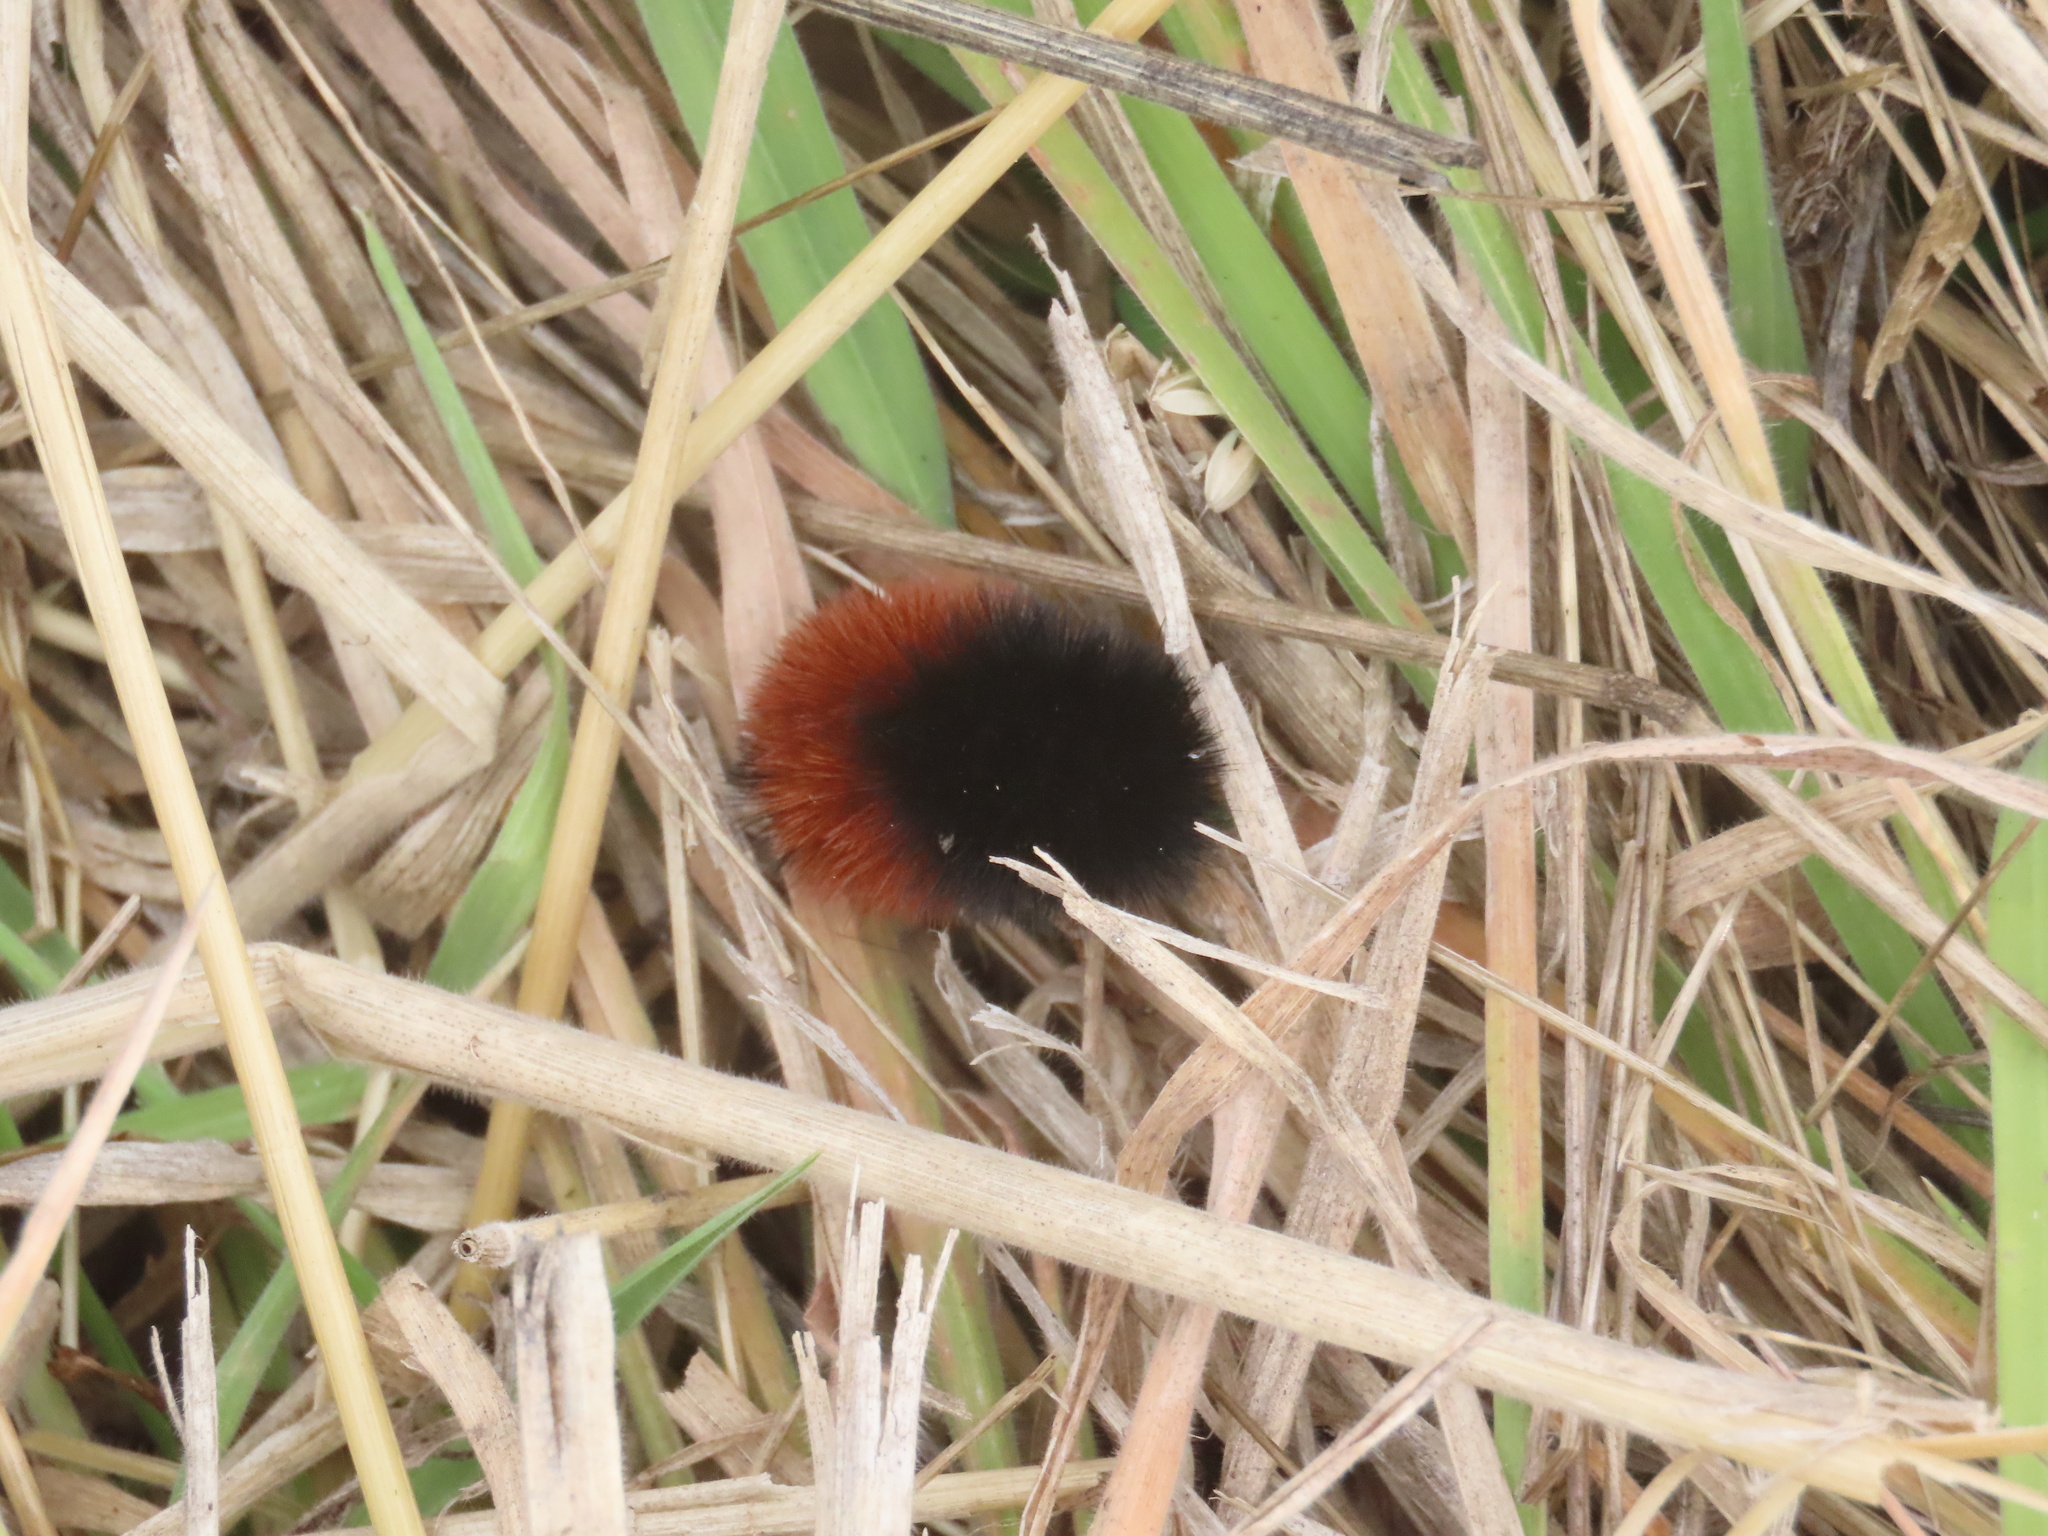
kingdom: Animalia
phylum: Arthropoda
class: Insecta
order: Lepidoptera
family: Erebidae
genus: Pyrrharctia
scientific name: Pyrrharctia isabella
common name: Isabella tiger moth
